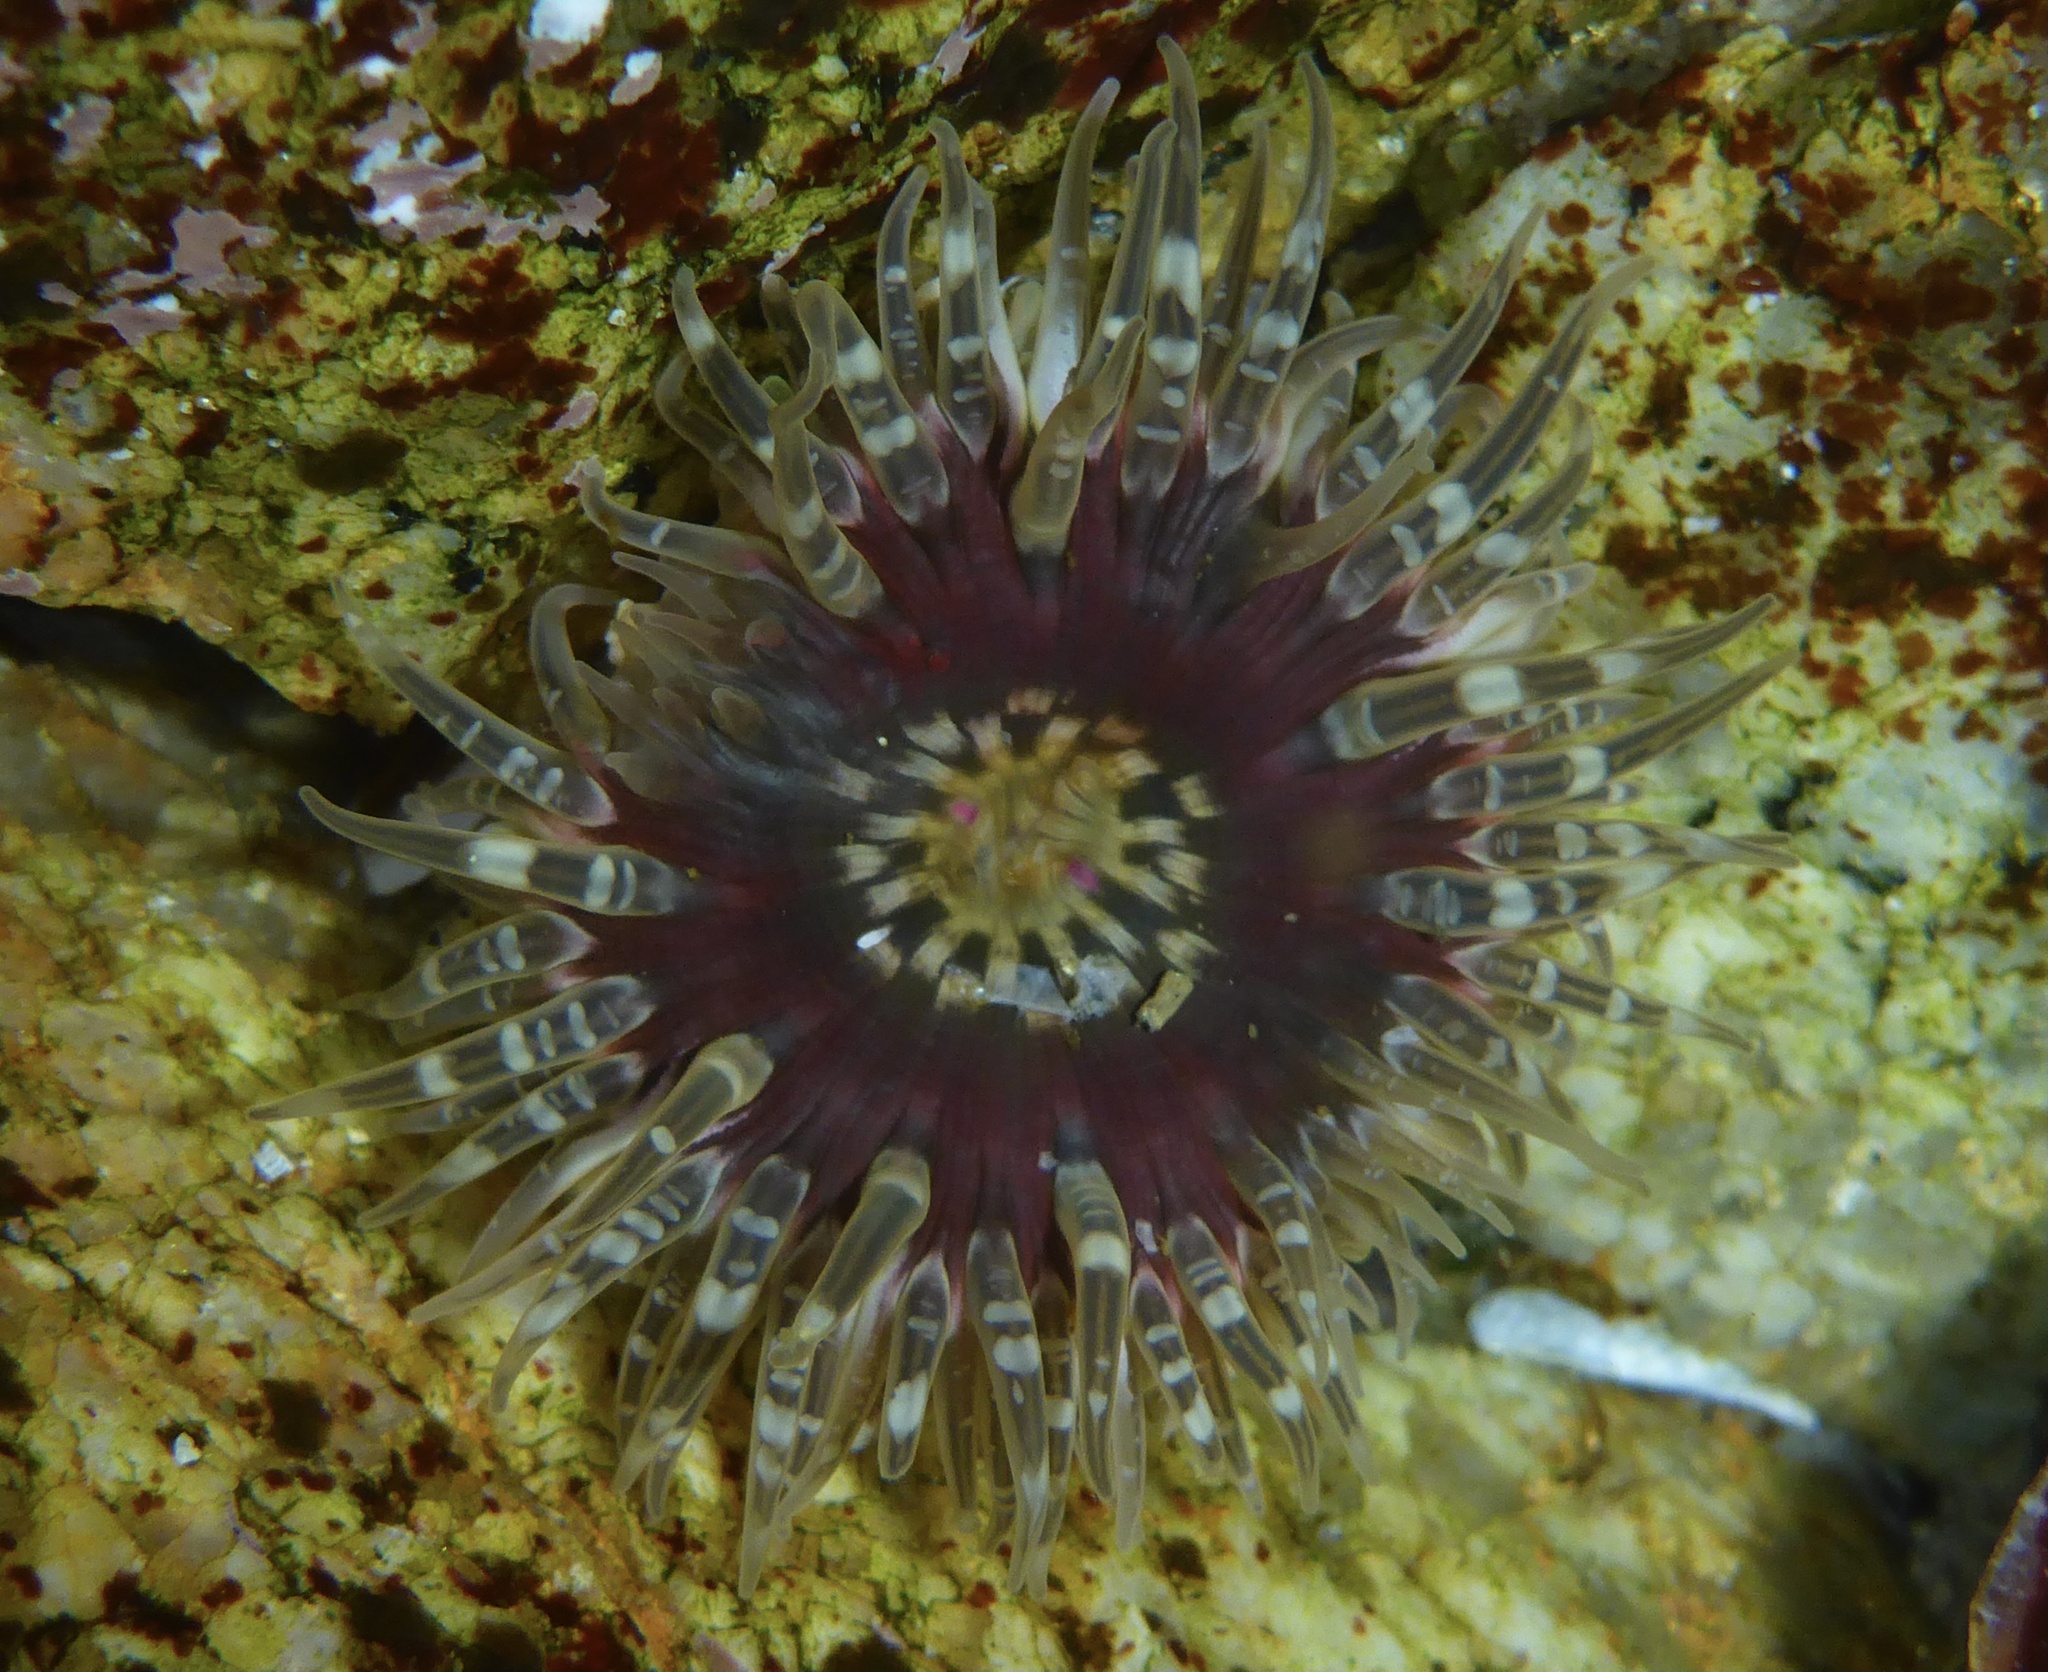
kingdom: Animalia
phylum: Cnidaria
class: Anthozoa
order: Actiniaria
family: Actiniidae
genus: Anthopleura
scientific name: Anthopleura artemisia
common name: Buried sea anemone
